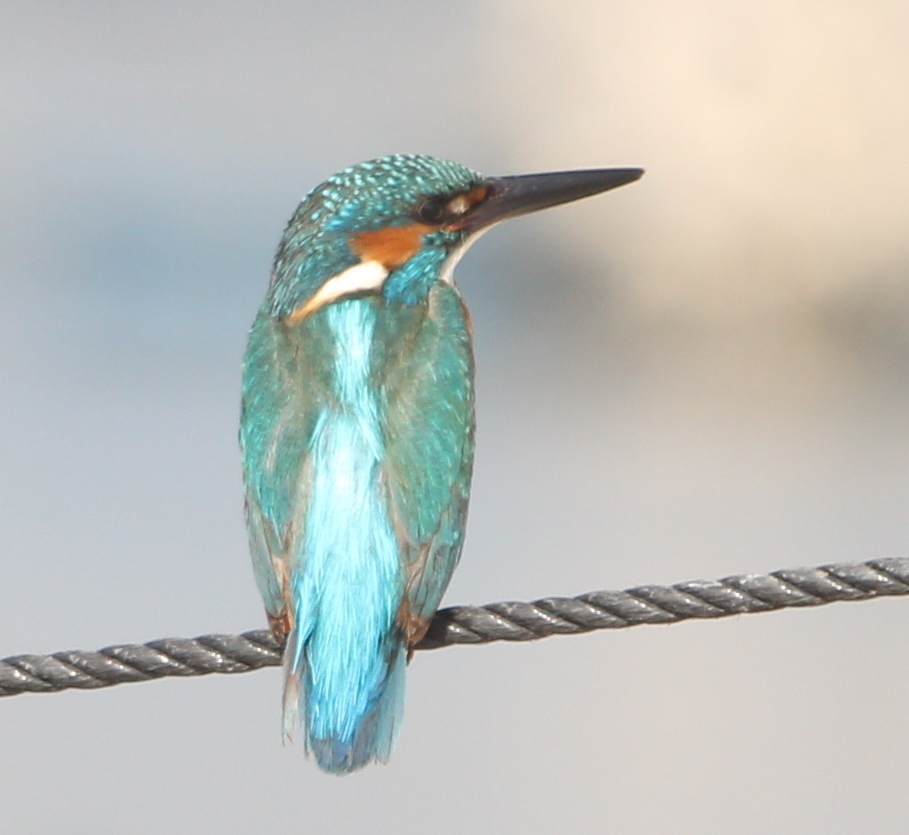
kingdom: Animalia
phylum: Chordata
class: Aves
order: Coraciiformes
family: Alcedinidae
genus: Alcedo
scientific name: Alcedo atthis
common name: Common kingfisher
